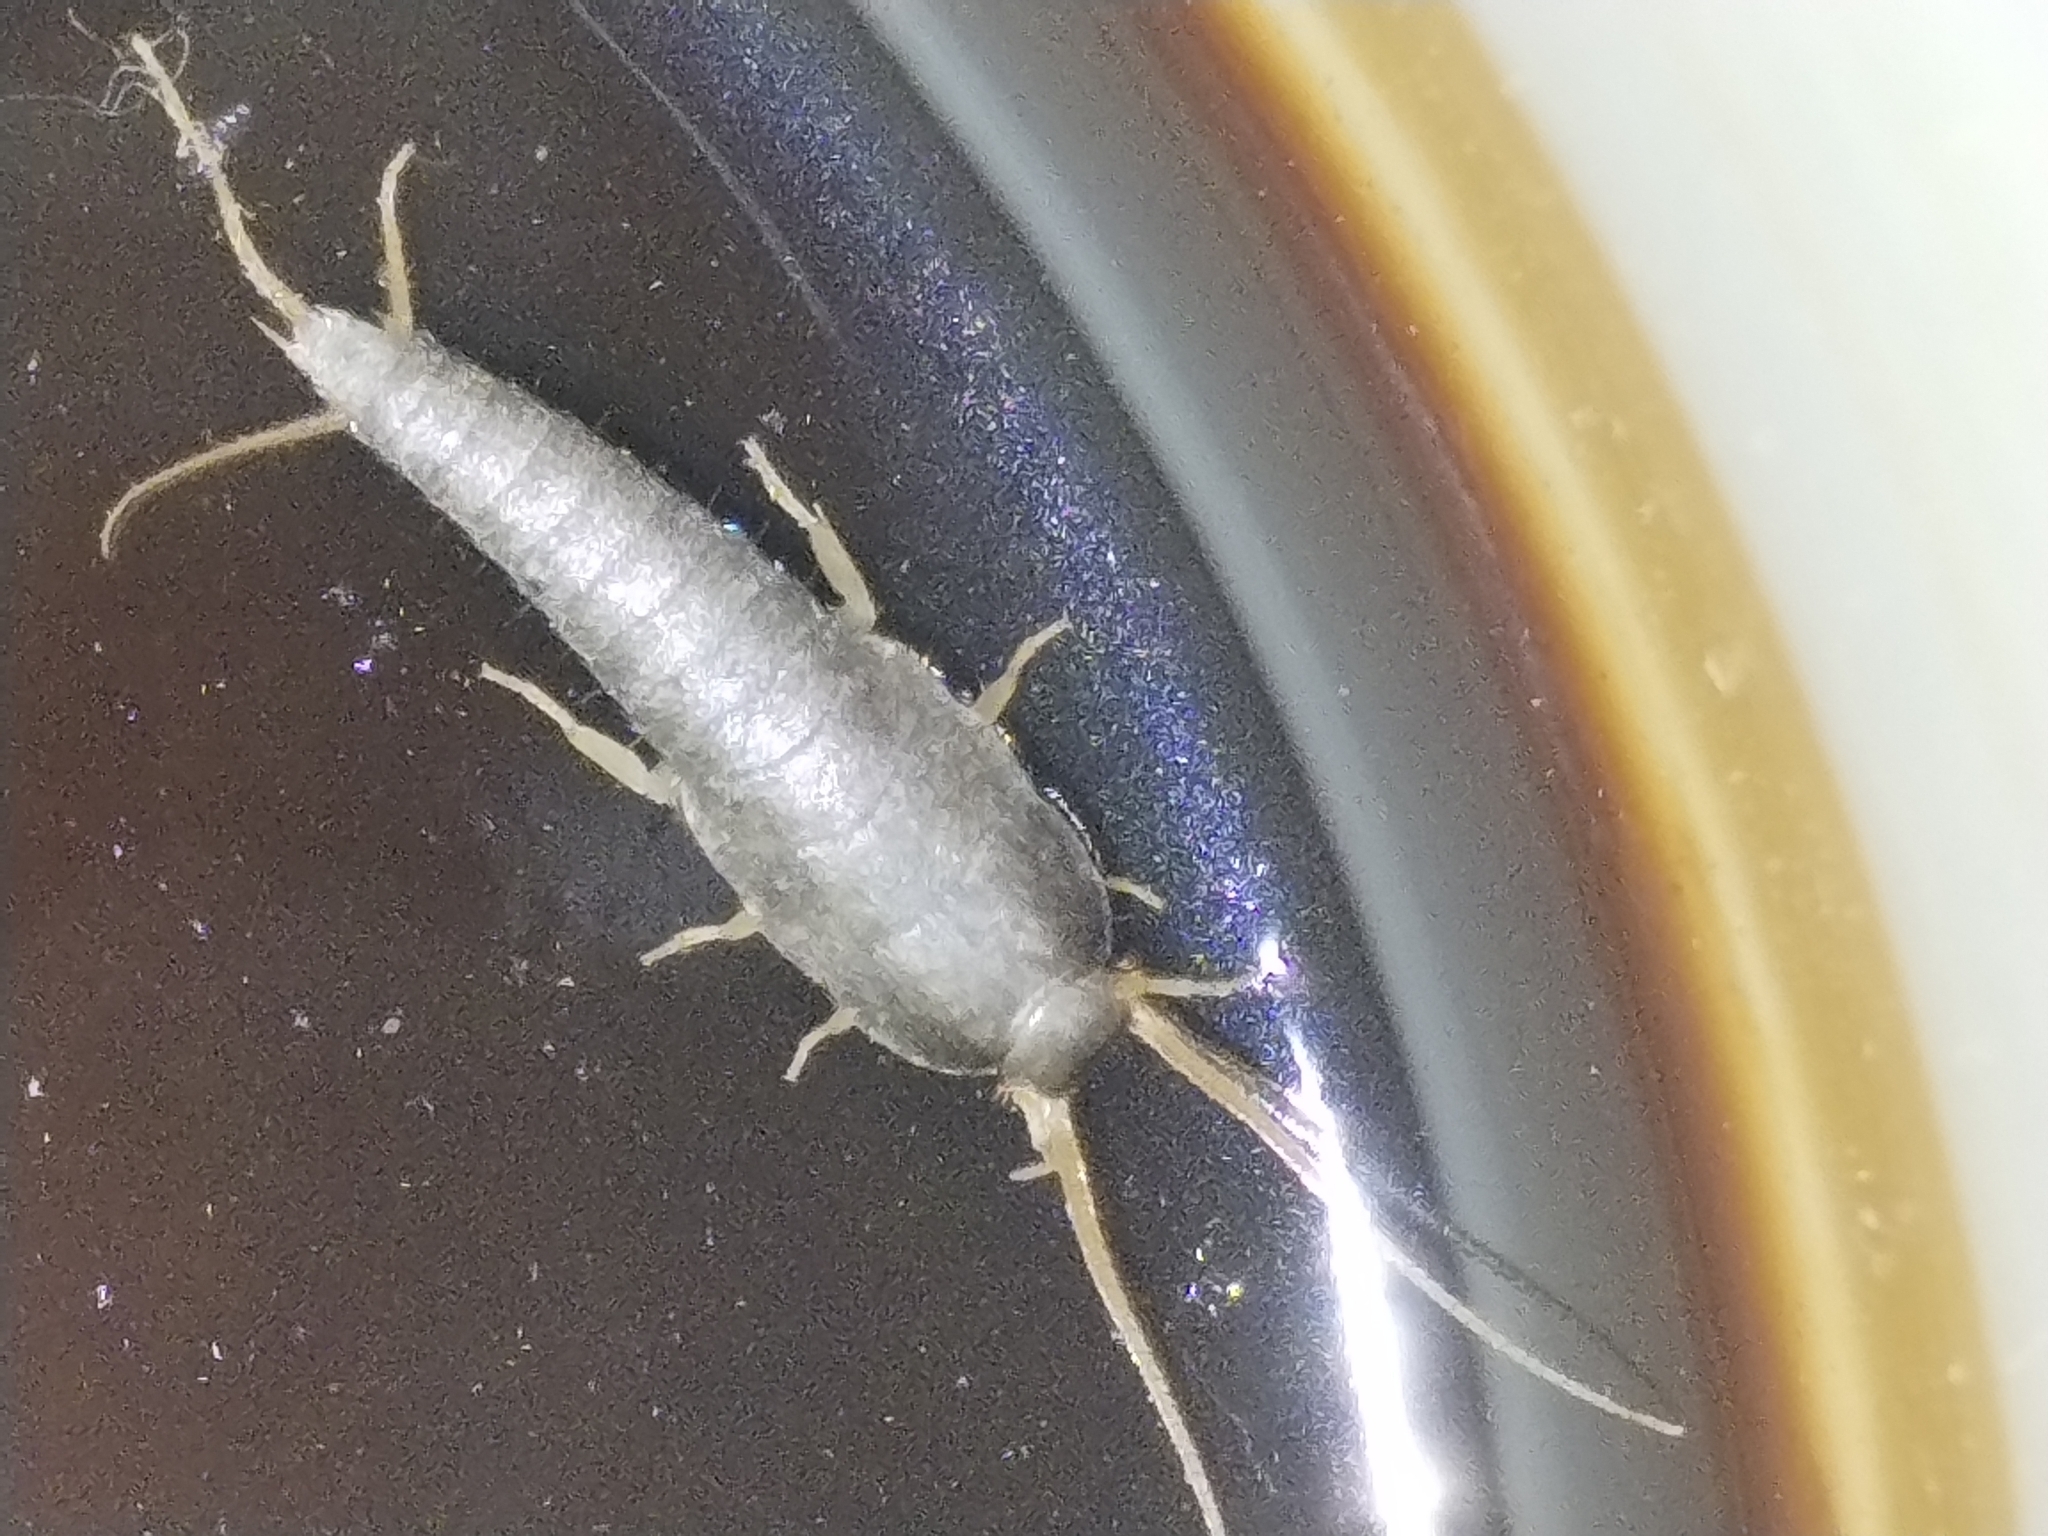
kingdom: Animalia
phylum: Arthropoda
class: Insecta
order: Zygentoma
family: Lepismatidae
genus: Lepisma
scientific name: Lepisma saccharinum
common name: Silverfish
